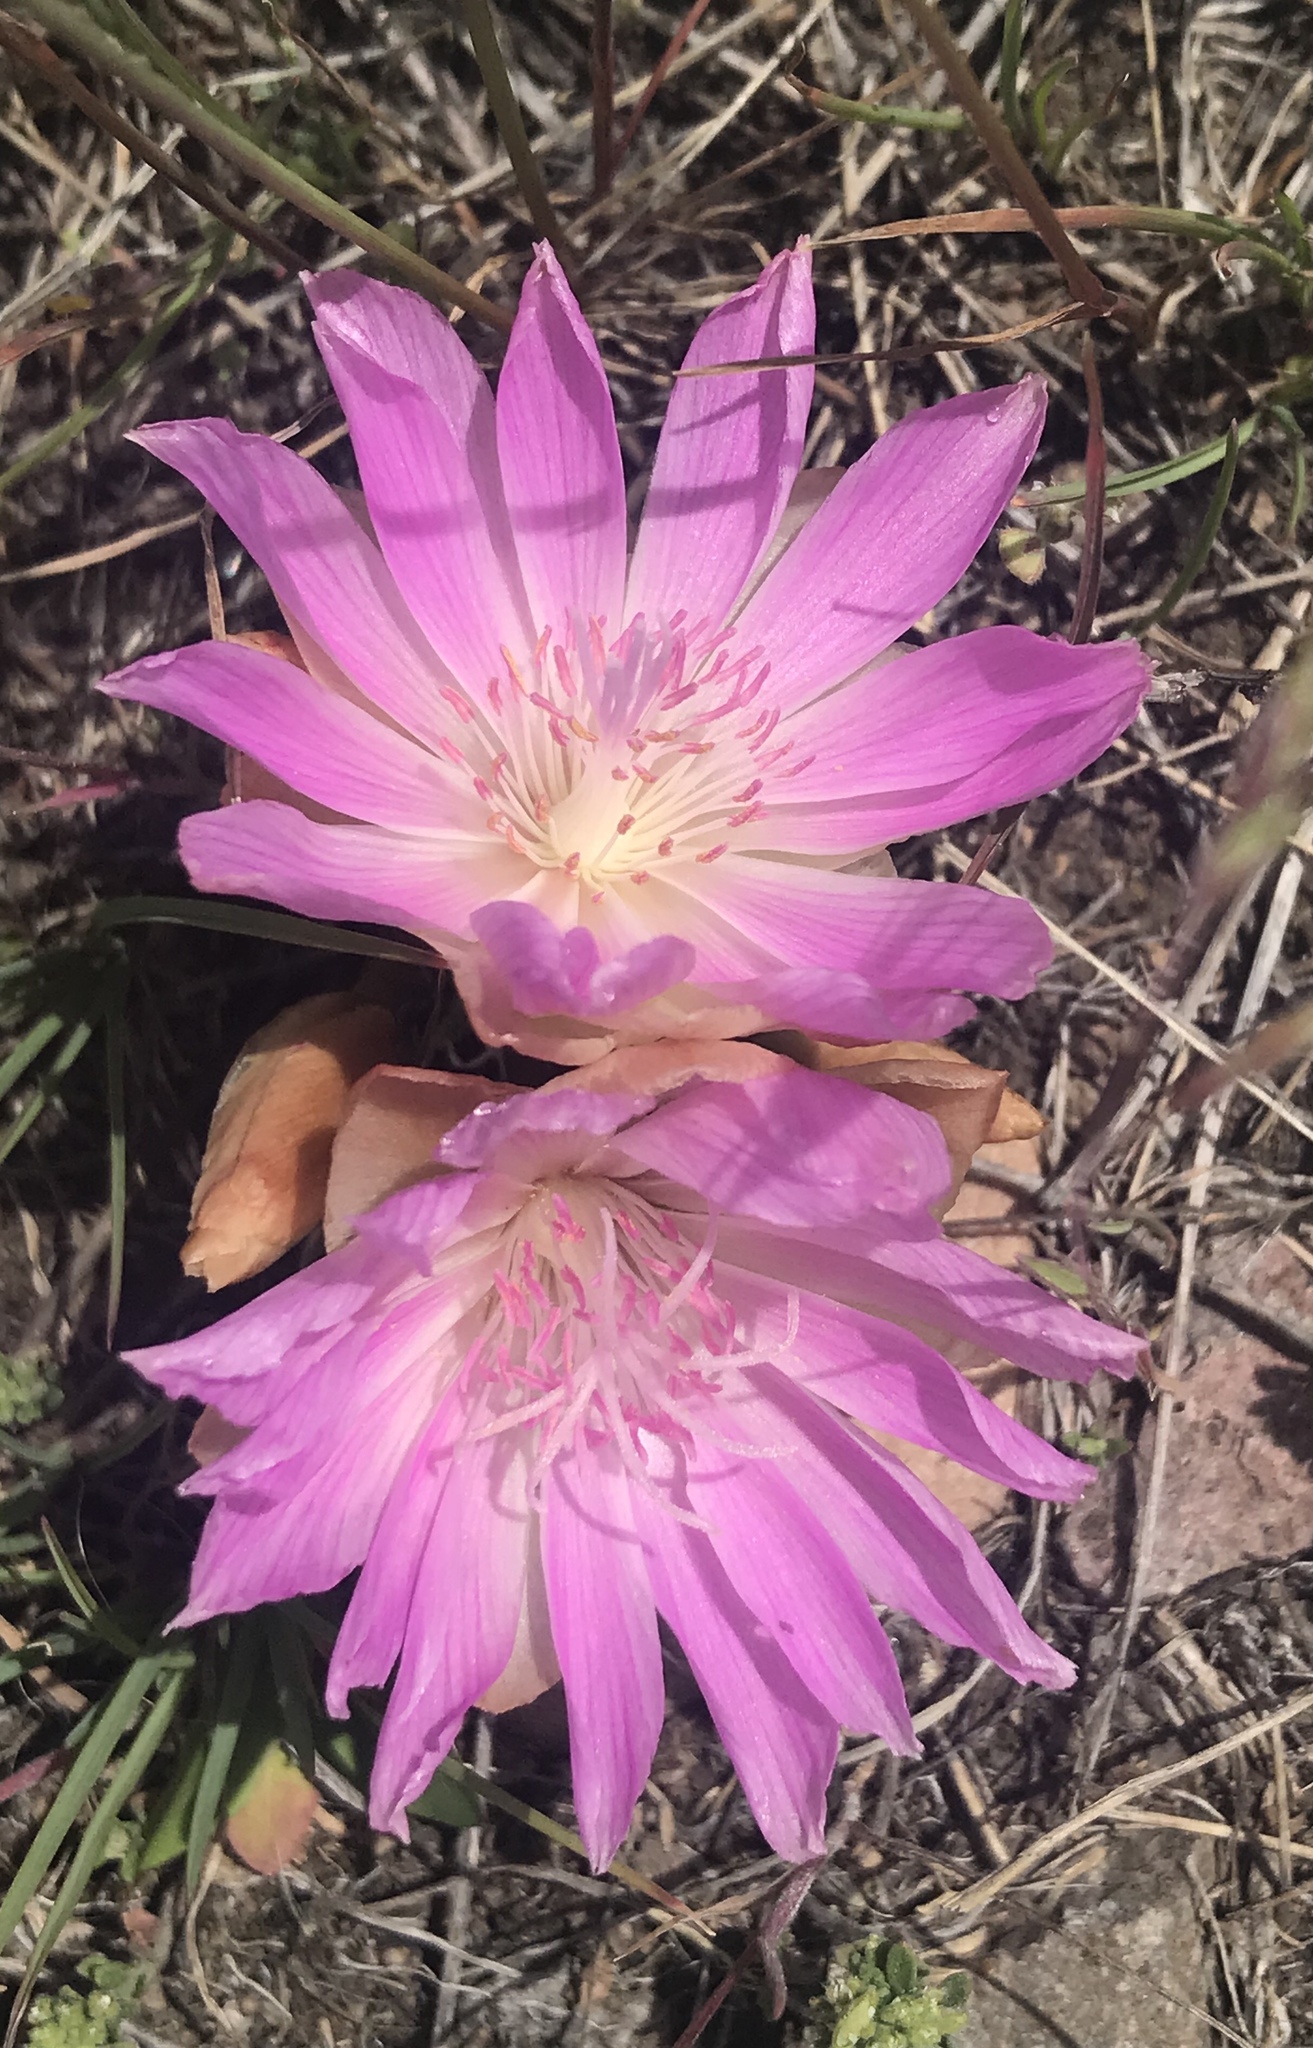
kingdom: Plantae
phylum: Tracheophyta
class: Magnoliopsida
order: Caryophyllales
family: Montiaceae
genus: Lewisia
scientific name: Lewisia rediviva
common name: Bitter-root
